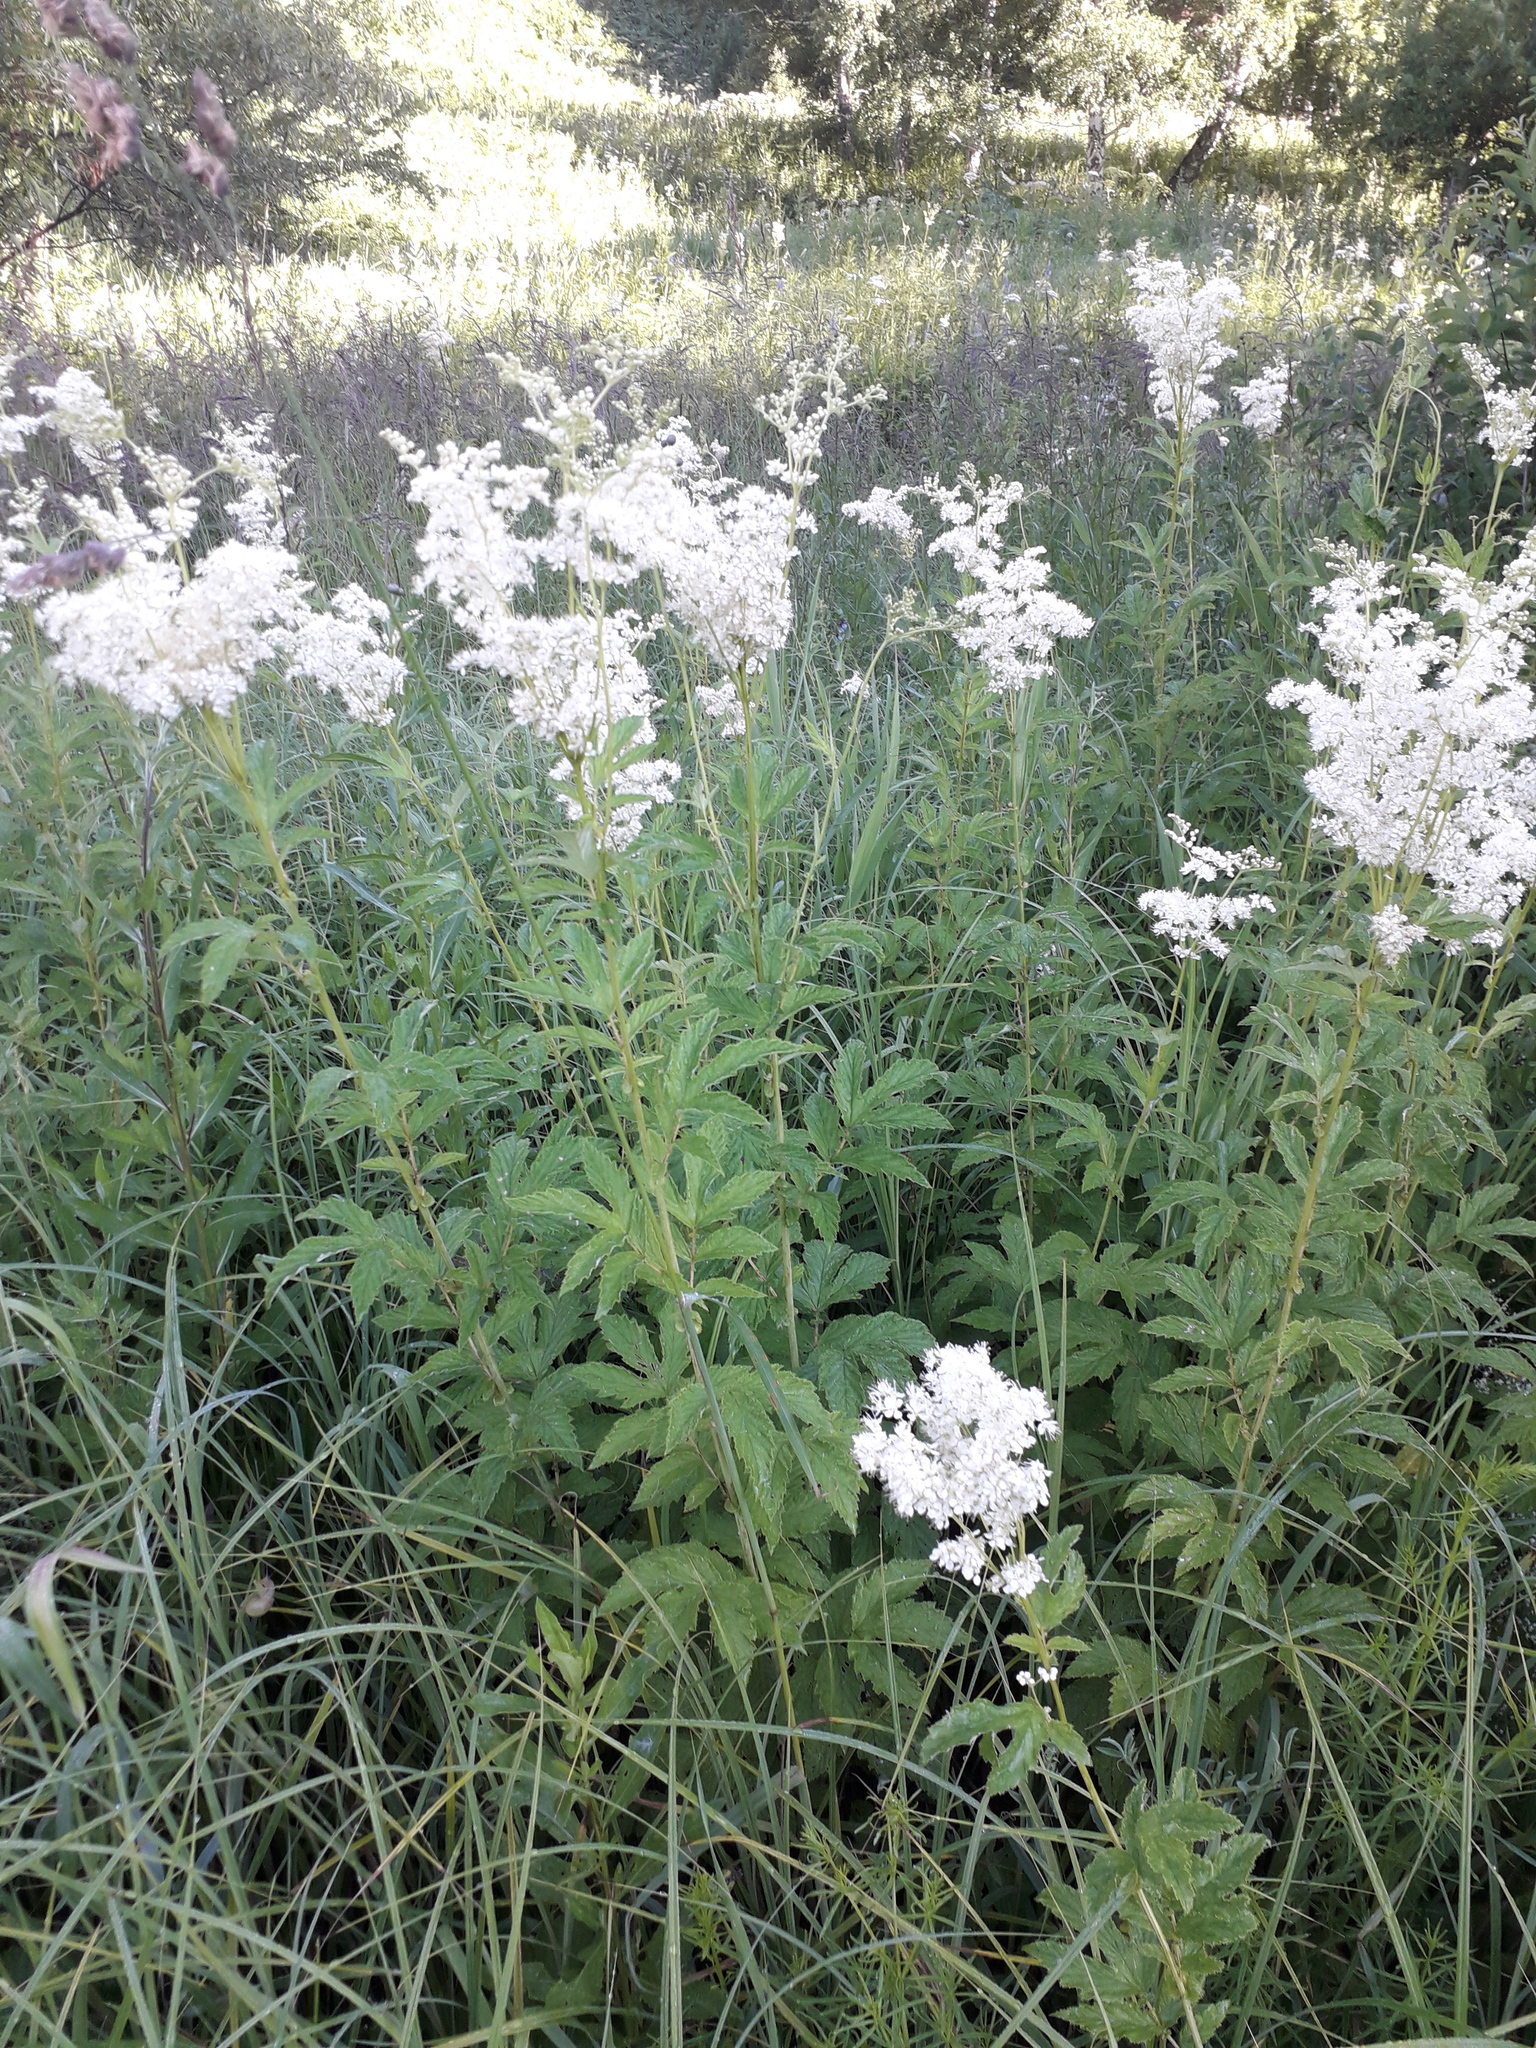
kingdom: Plantae
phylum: Tracheophyta
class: Magnoliopsida
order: Rosales
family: Rosaceae
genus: Filipendula
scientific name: Filipendula ulmaria
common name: Meadowsweet
